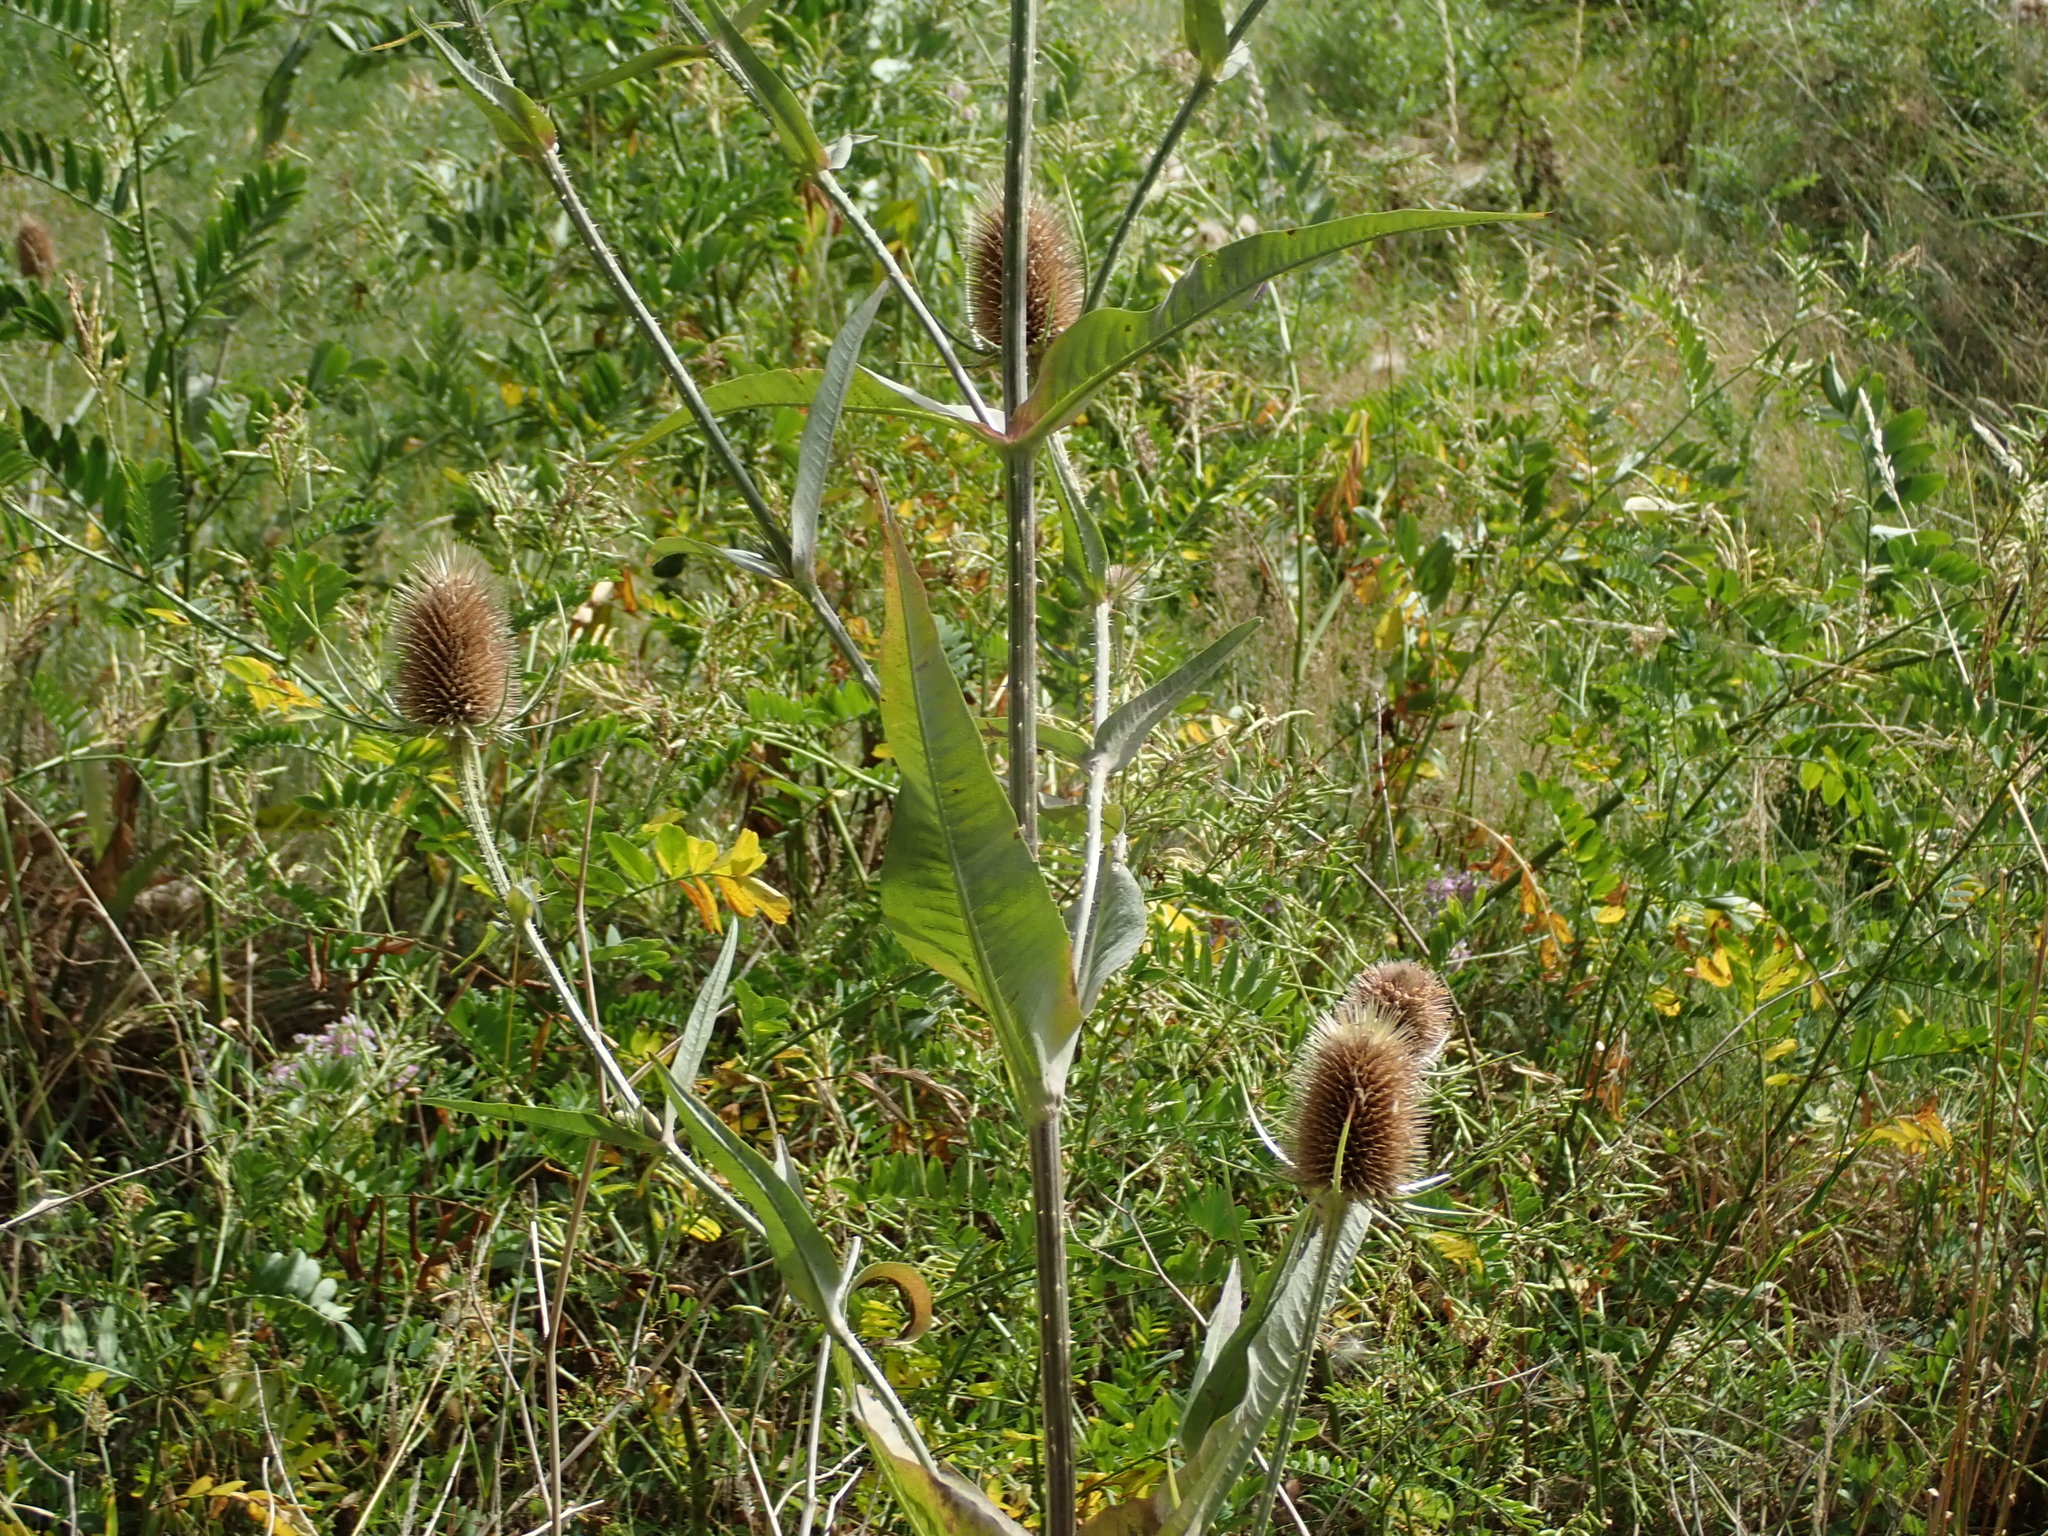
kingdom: Plantae
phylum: Tracheophyta
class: Magnoliopsida
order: Dipsacales
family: Caprifoliaceae
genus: Dipsacus
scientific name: Dipsacus fullonum
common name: Teasel
